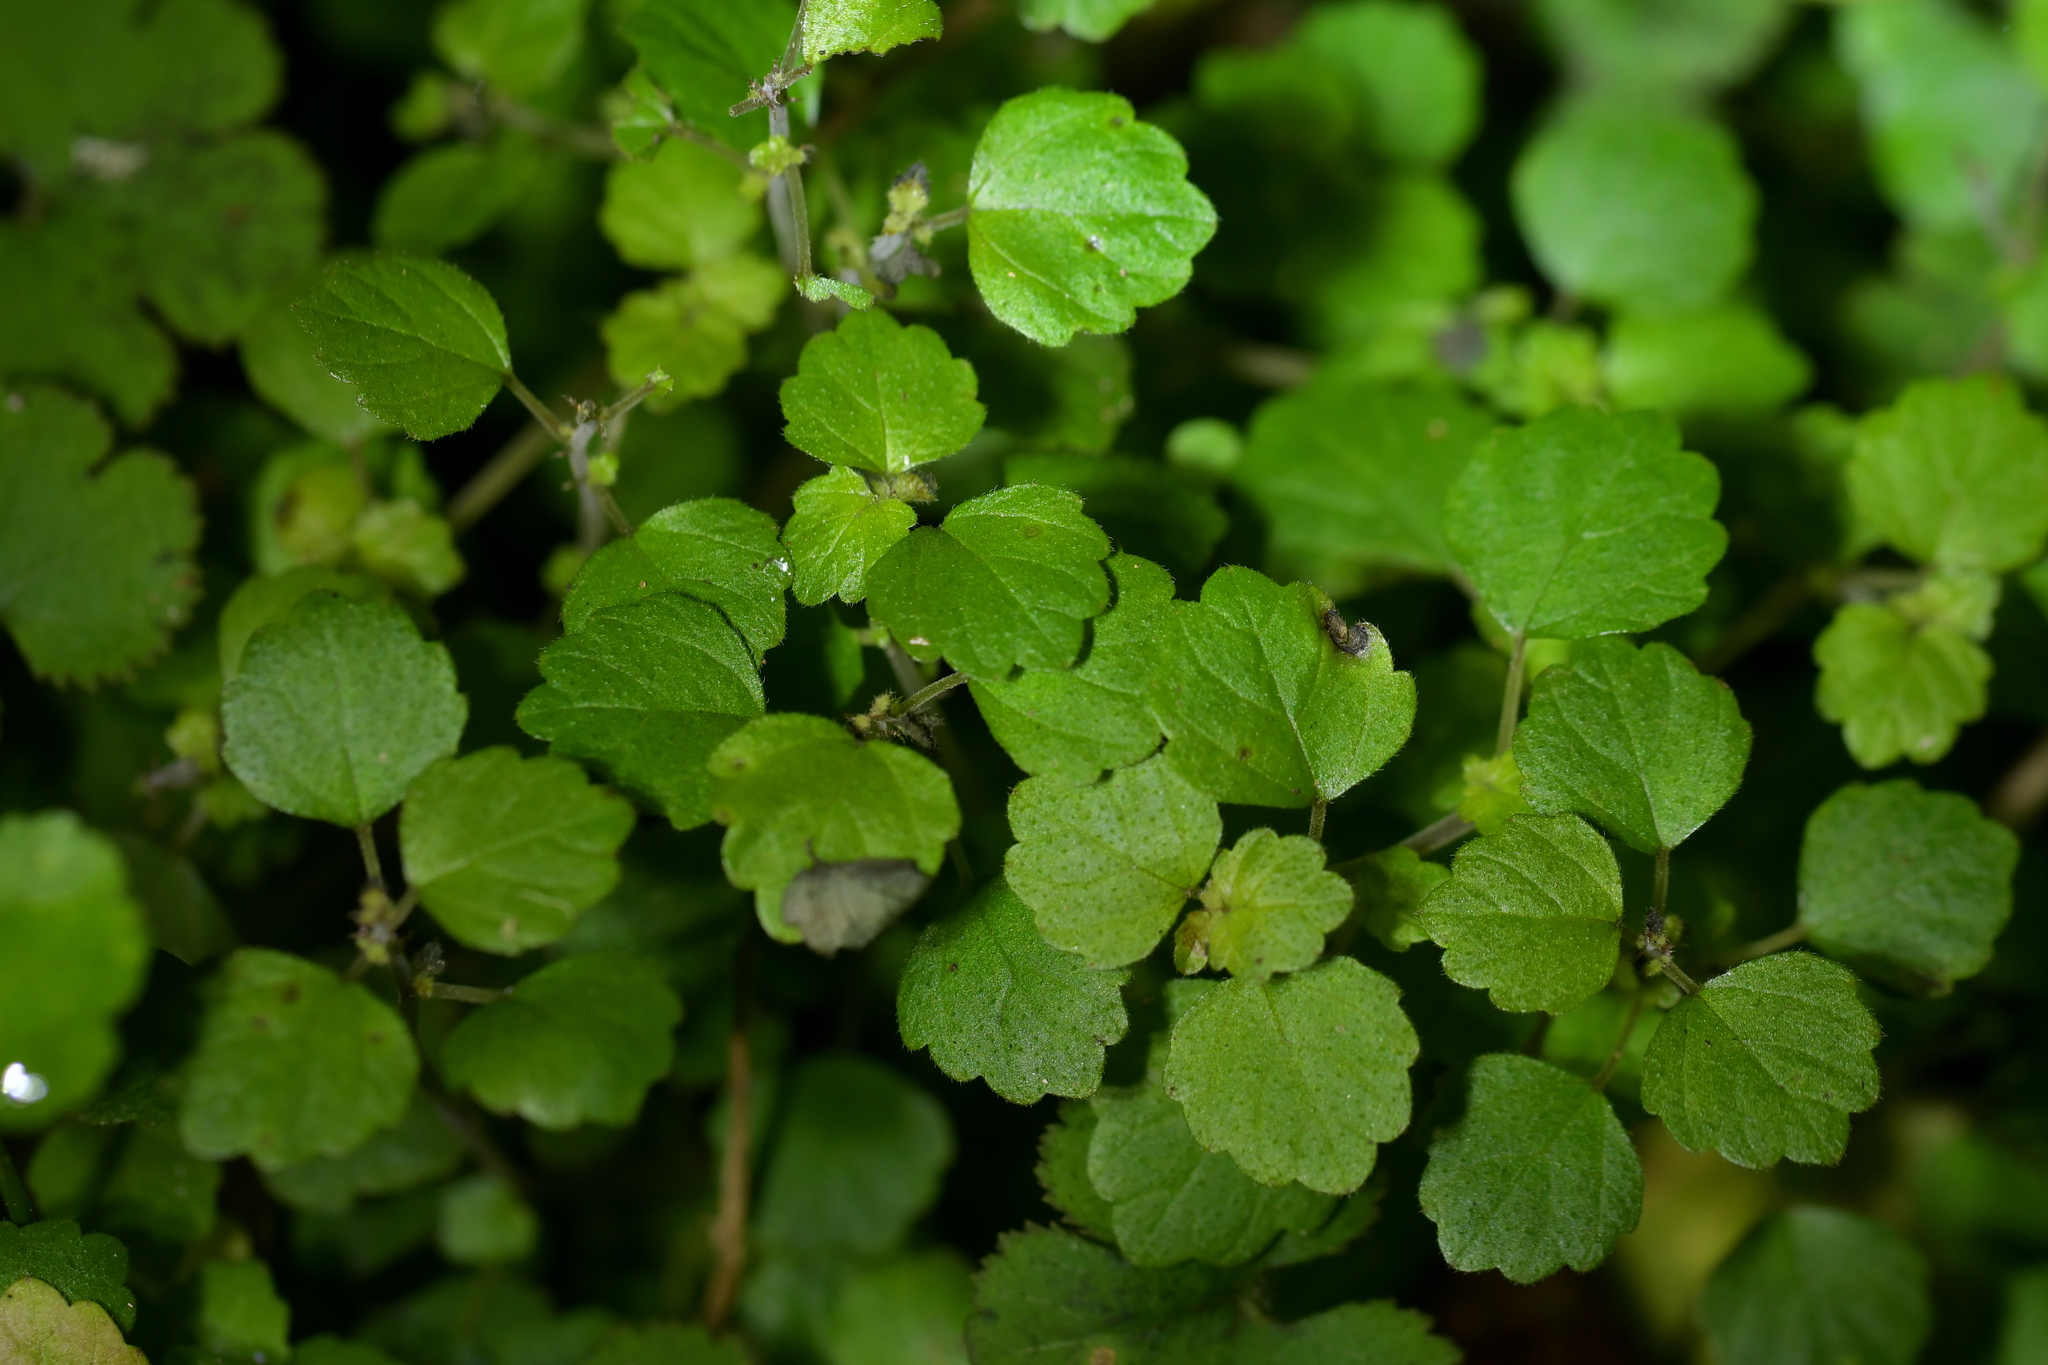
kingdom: Plantae
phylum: Tracheophyta
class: Magnoliopsida
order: Rosales
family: Urticaceae
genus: Australina
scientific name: Australina pusilla
